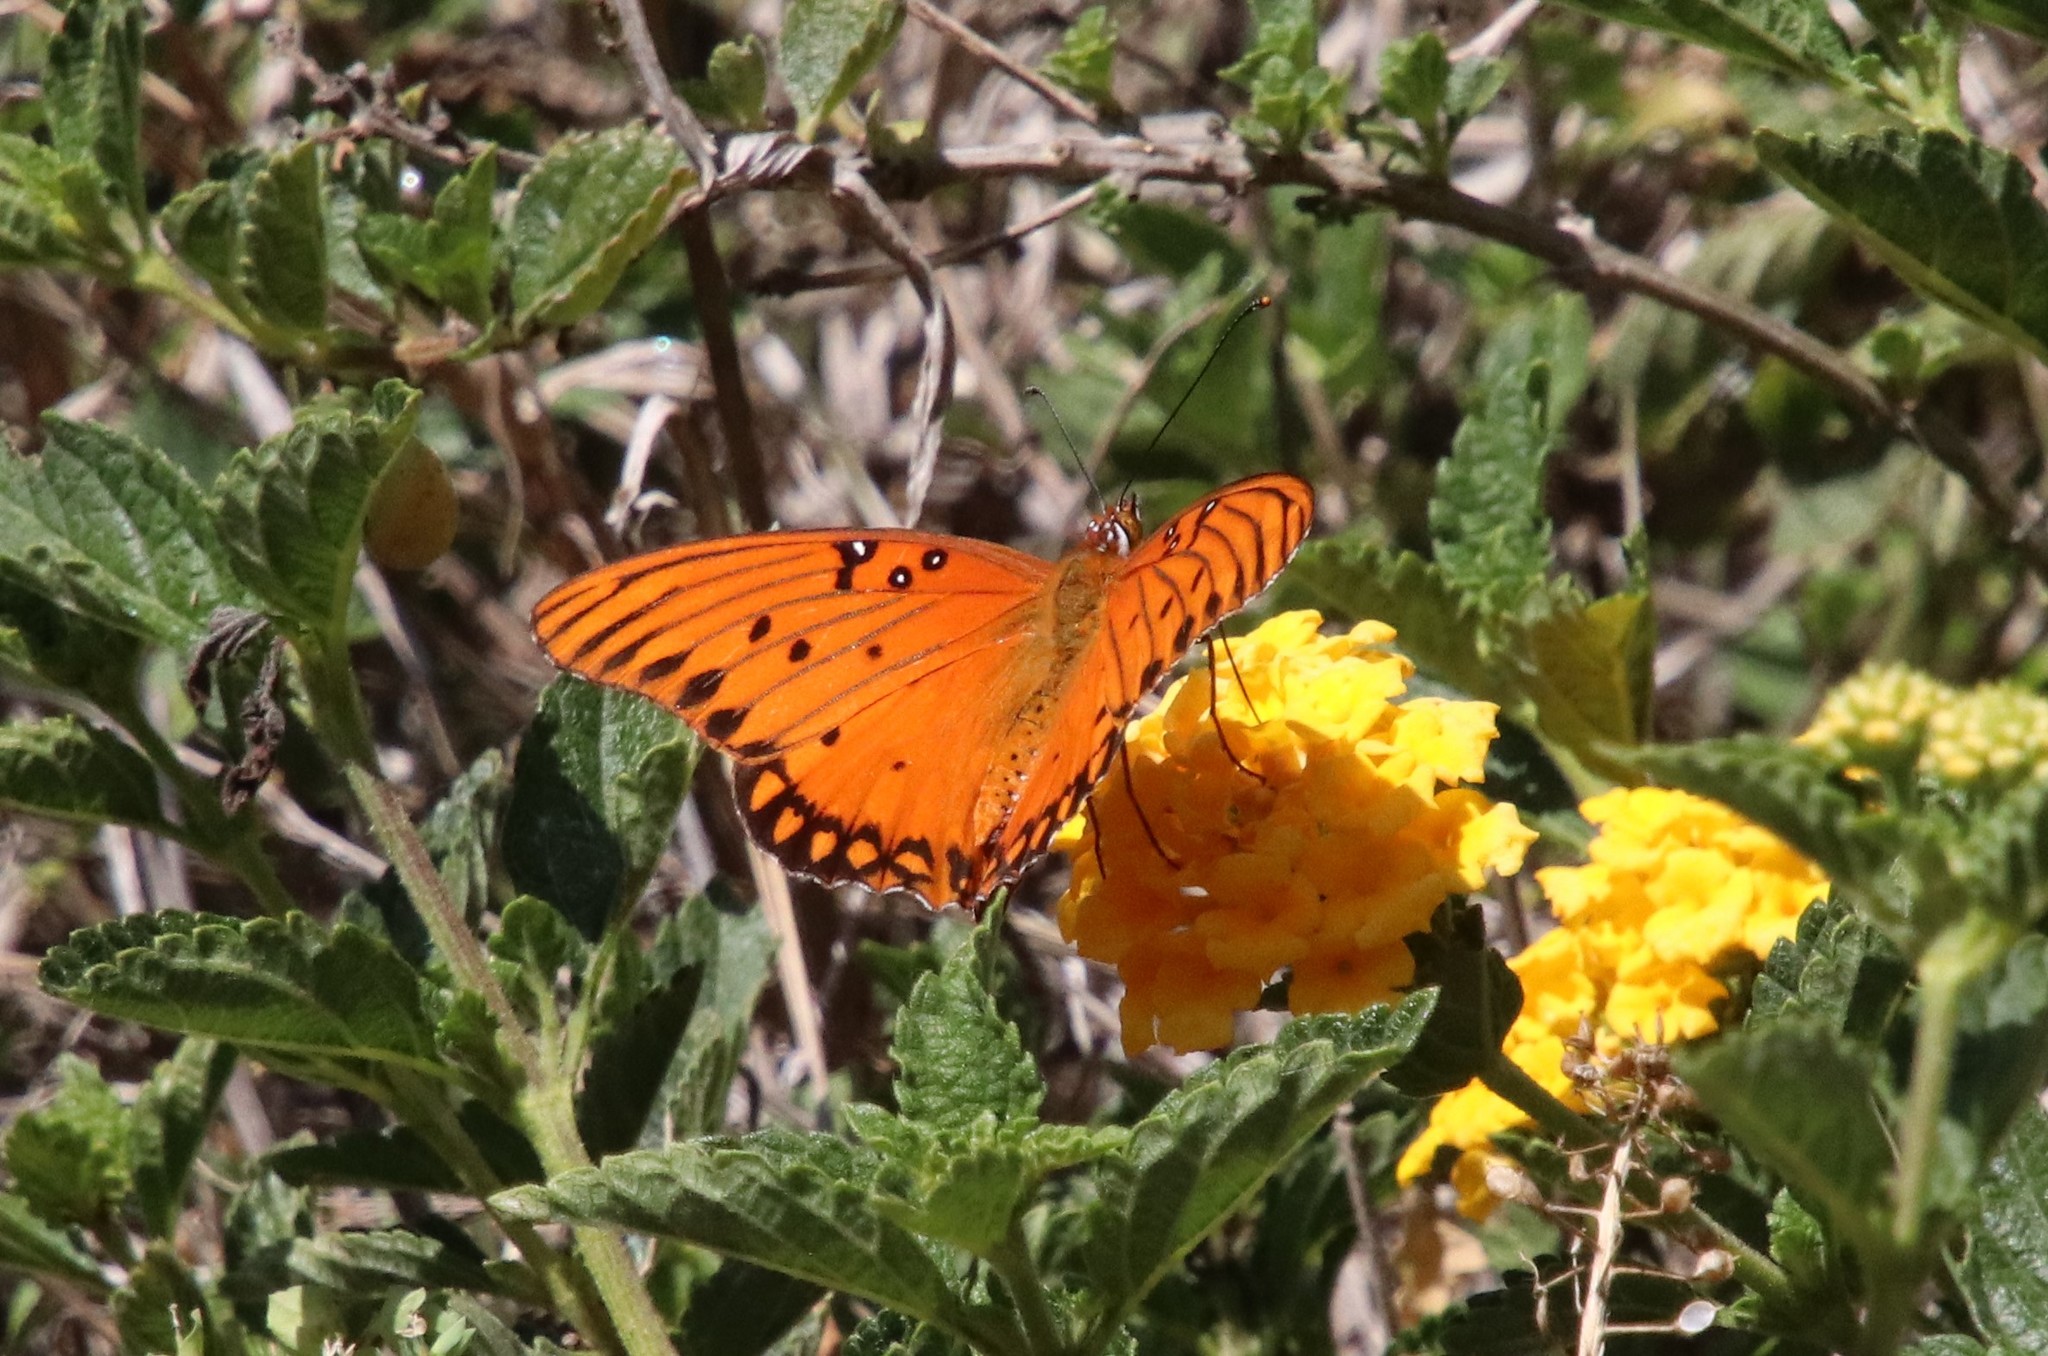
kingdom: Animalia
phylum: Arthropoda
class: Insecta
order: Lepidoptera
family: Nymphalidae
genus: Dione
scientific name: Dione vanillae
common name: Gulf fritillary
